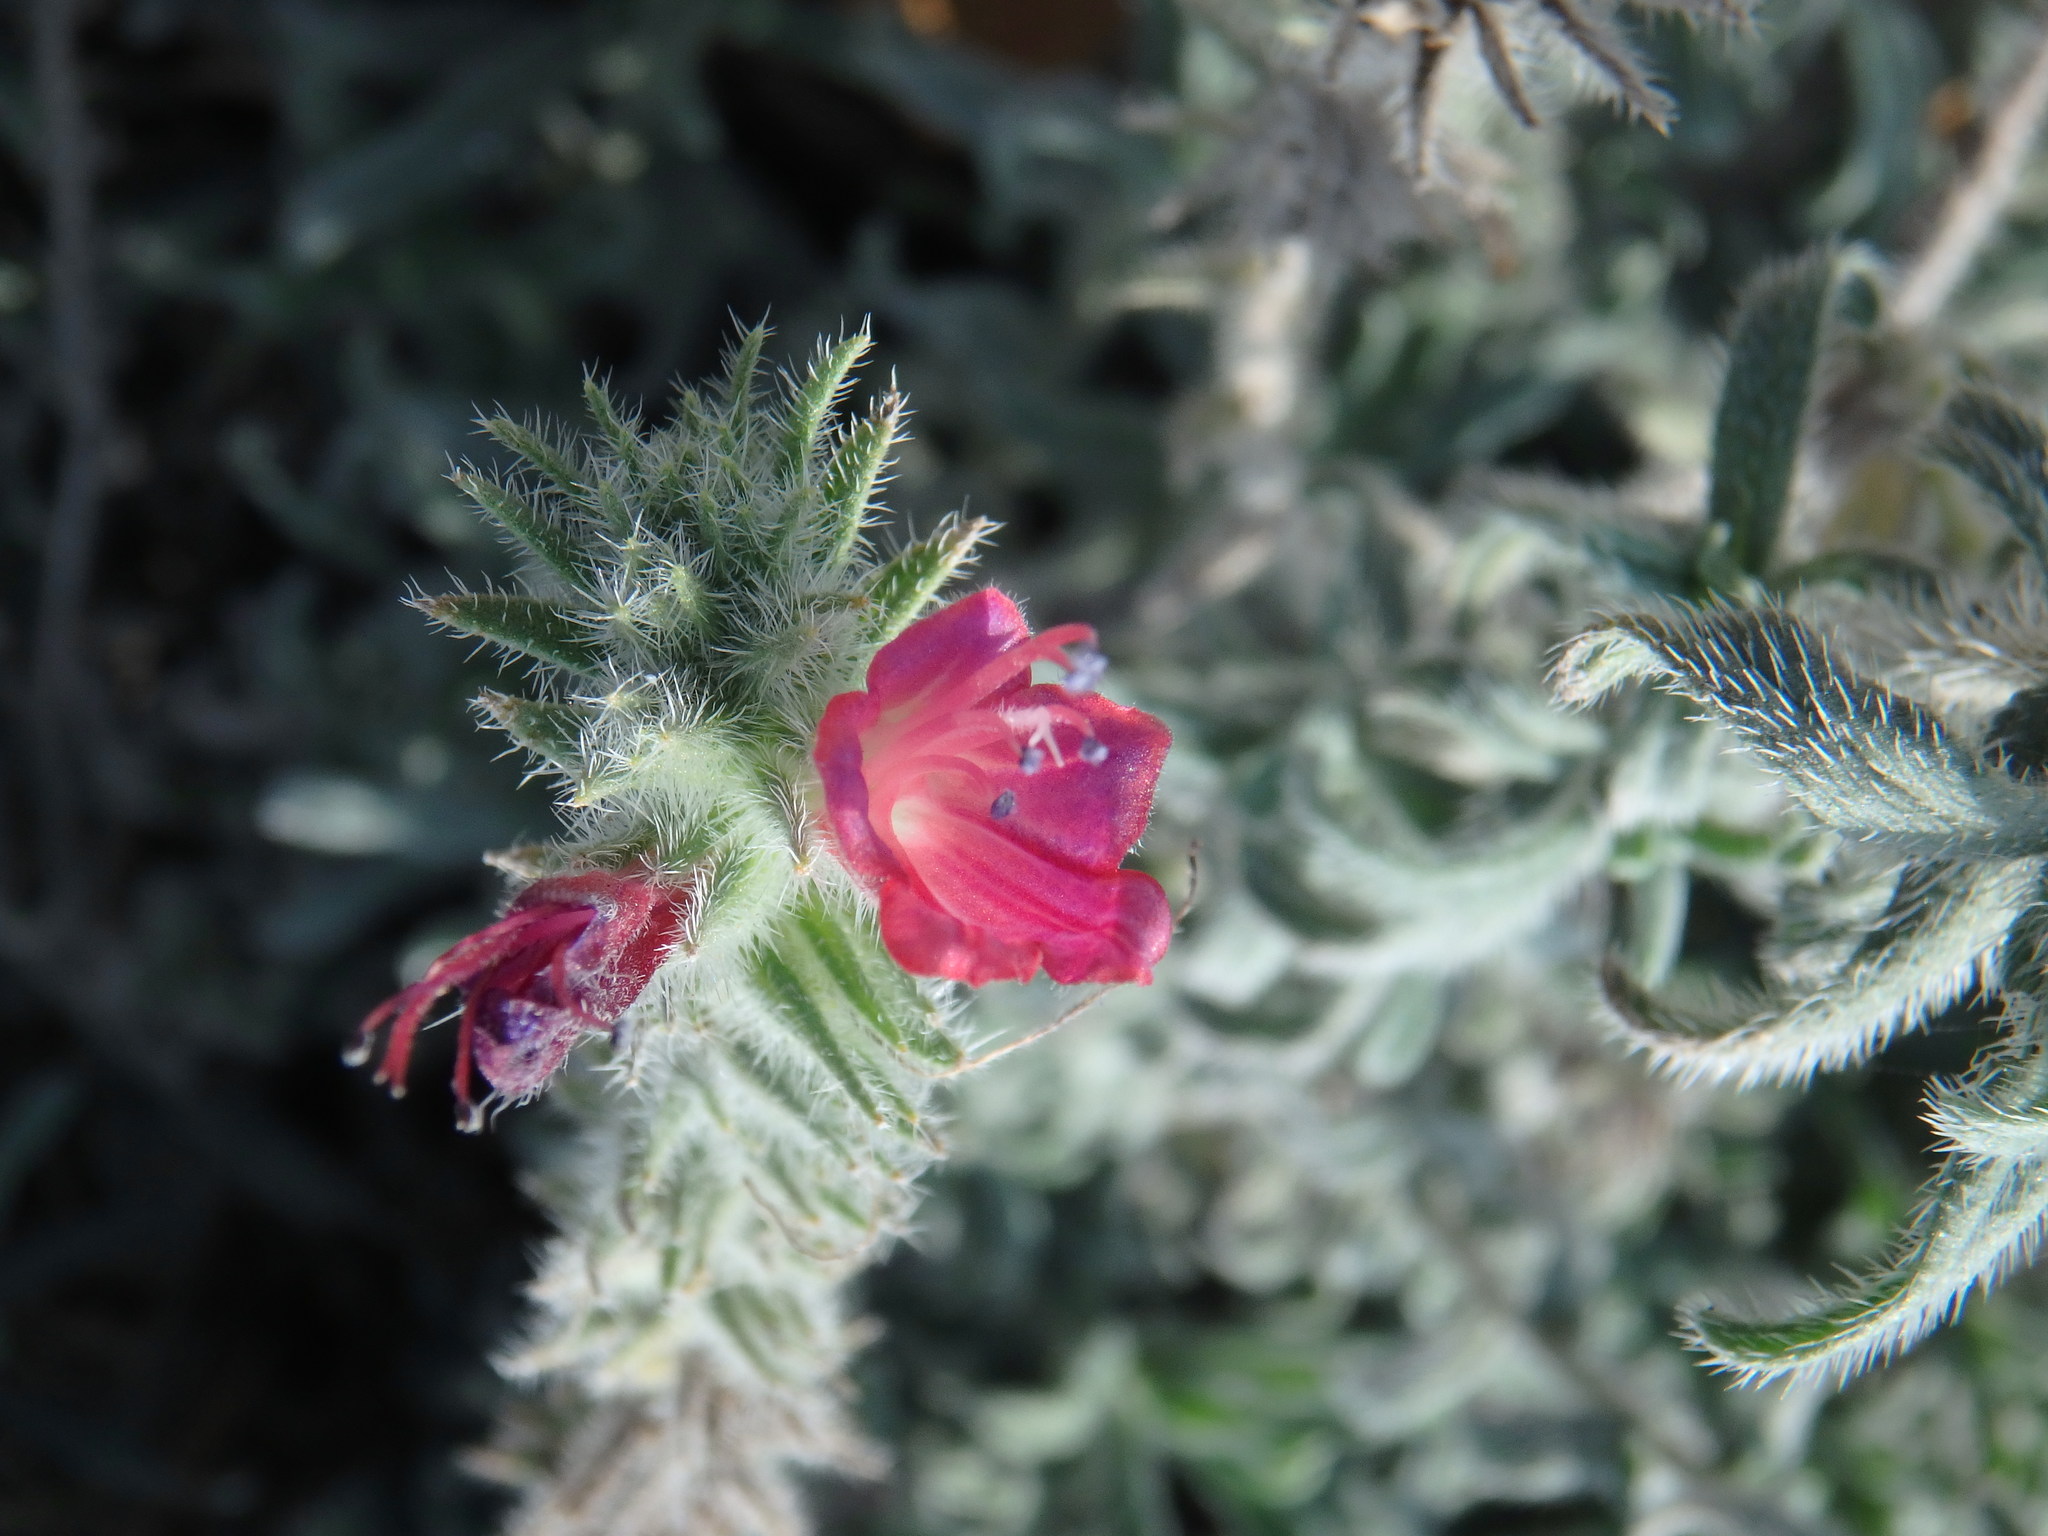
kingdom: Plantae
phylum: Tracheophyta
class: Magnoliopsida
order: Boraginales
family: Boraginaceae
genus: Echium
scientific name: Echium angustifolium
